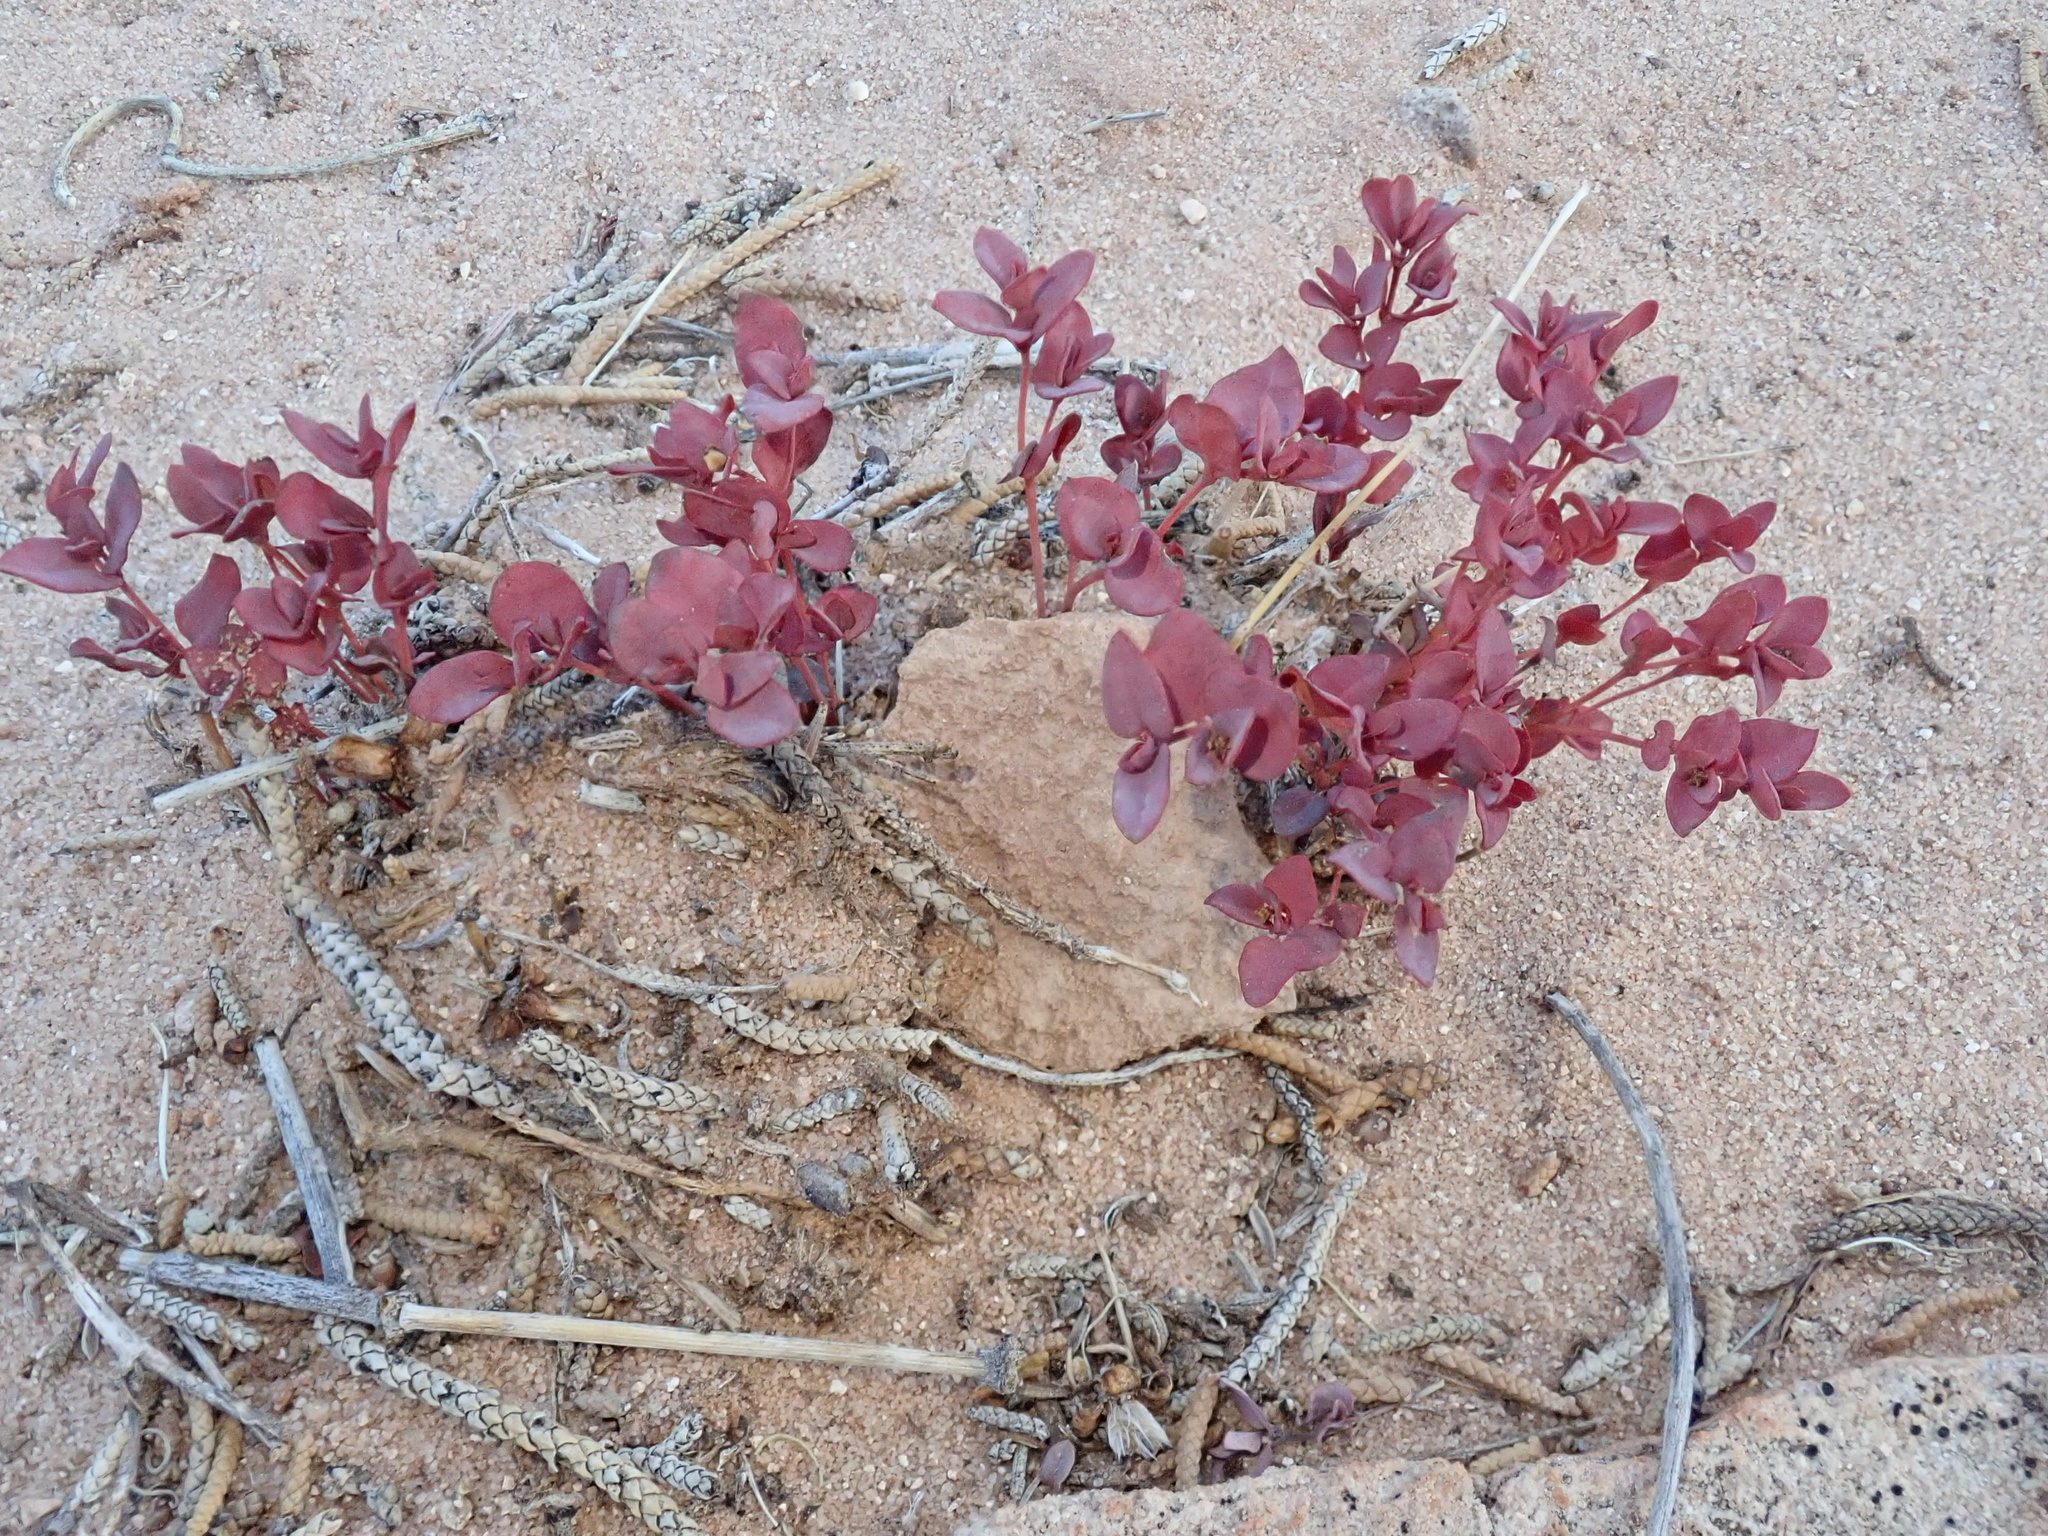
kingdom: Plantae
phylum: Tracheophyta
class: Magnoliopsida
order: Malpighiales
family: Euphorbiaceae
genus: Euphorbia
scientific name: Euphorbia fendleri
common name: Fendler's euphorbia
